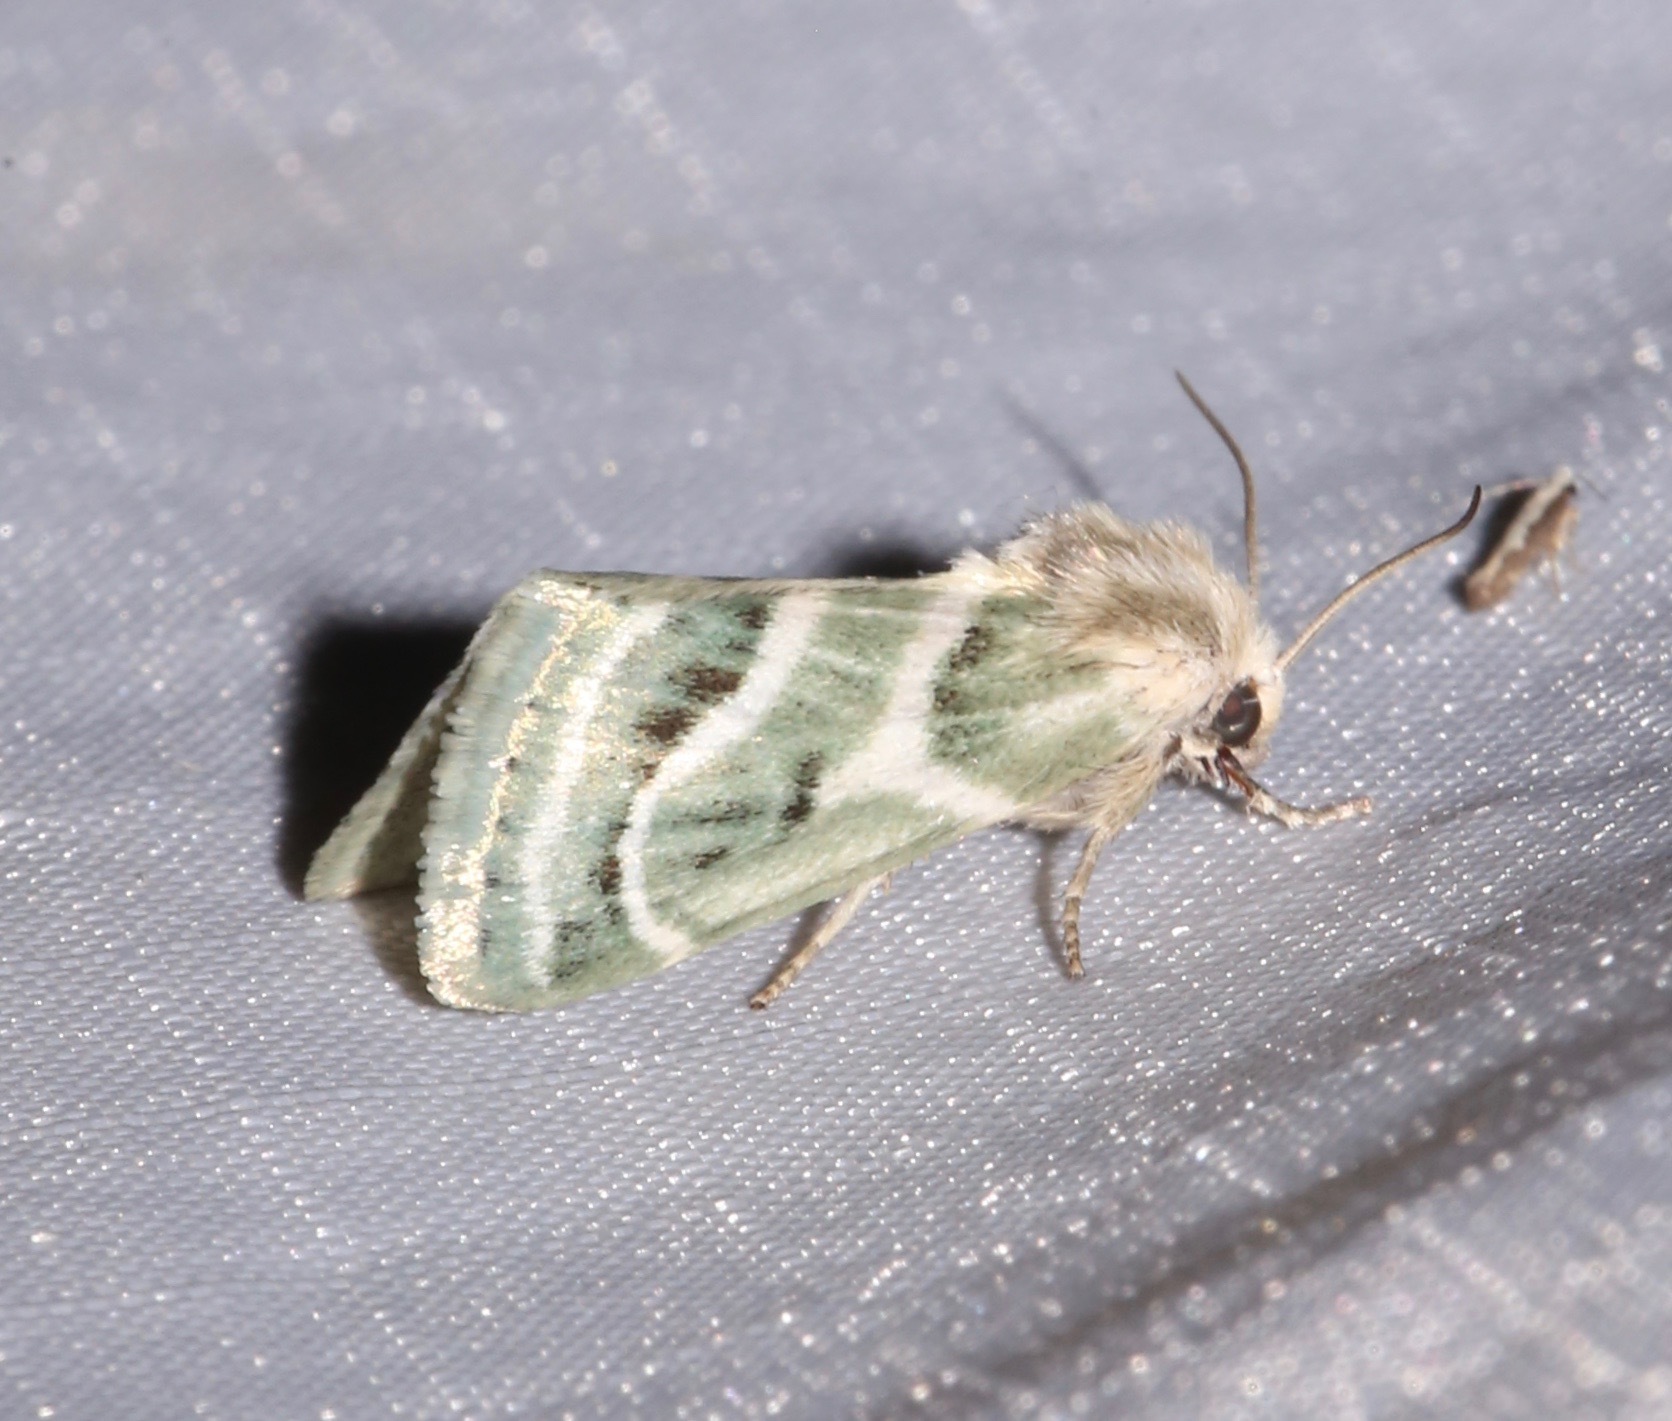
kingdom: Animalia
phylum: Arthropoda
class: Insecta
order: Lepidoptera
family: Noctuidae
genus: Schinia
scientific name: Schinia accessa
